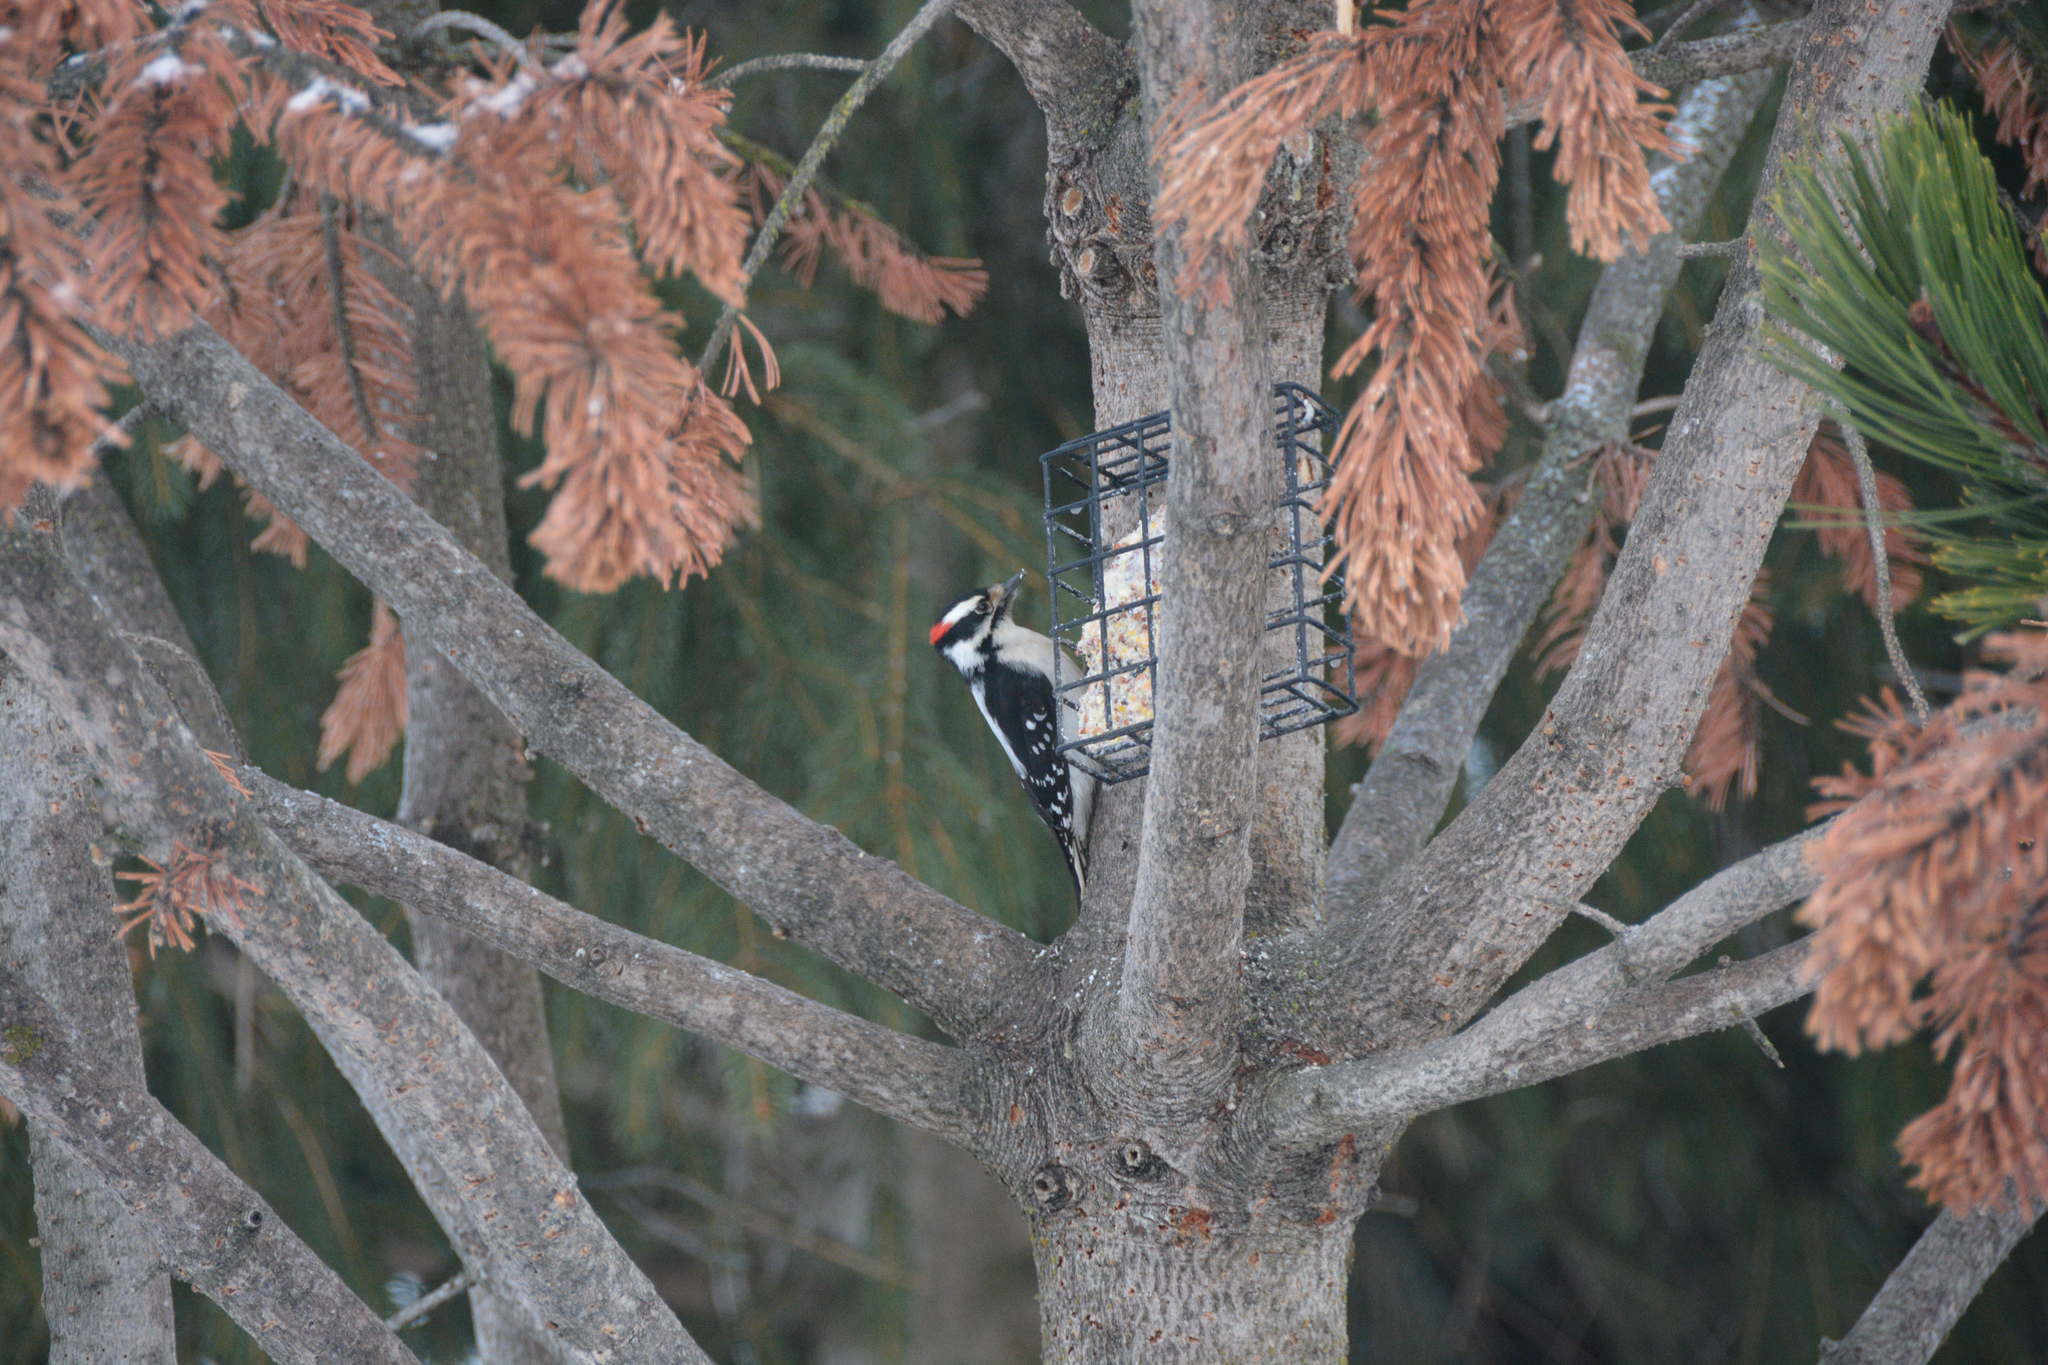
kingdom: Animalia
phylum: Chordata
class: Aves
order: Piciformes
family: Picidae
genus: Dryobates
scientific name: Dryobates pubescens
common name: Downy woodpecker
